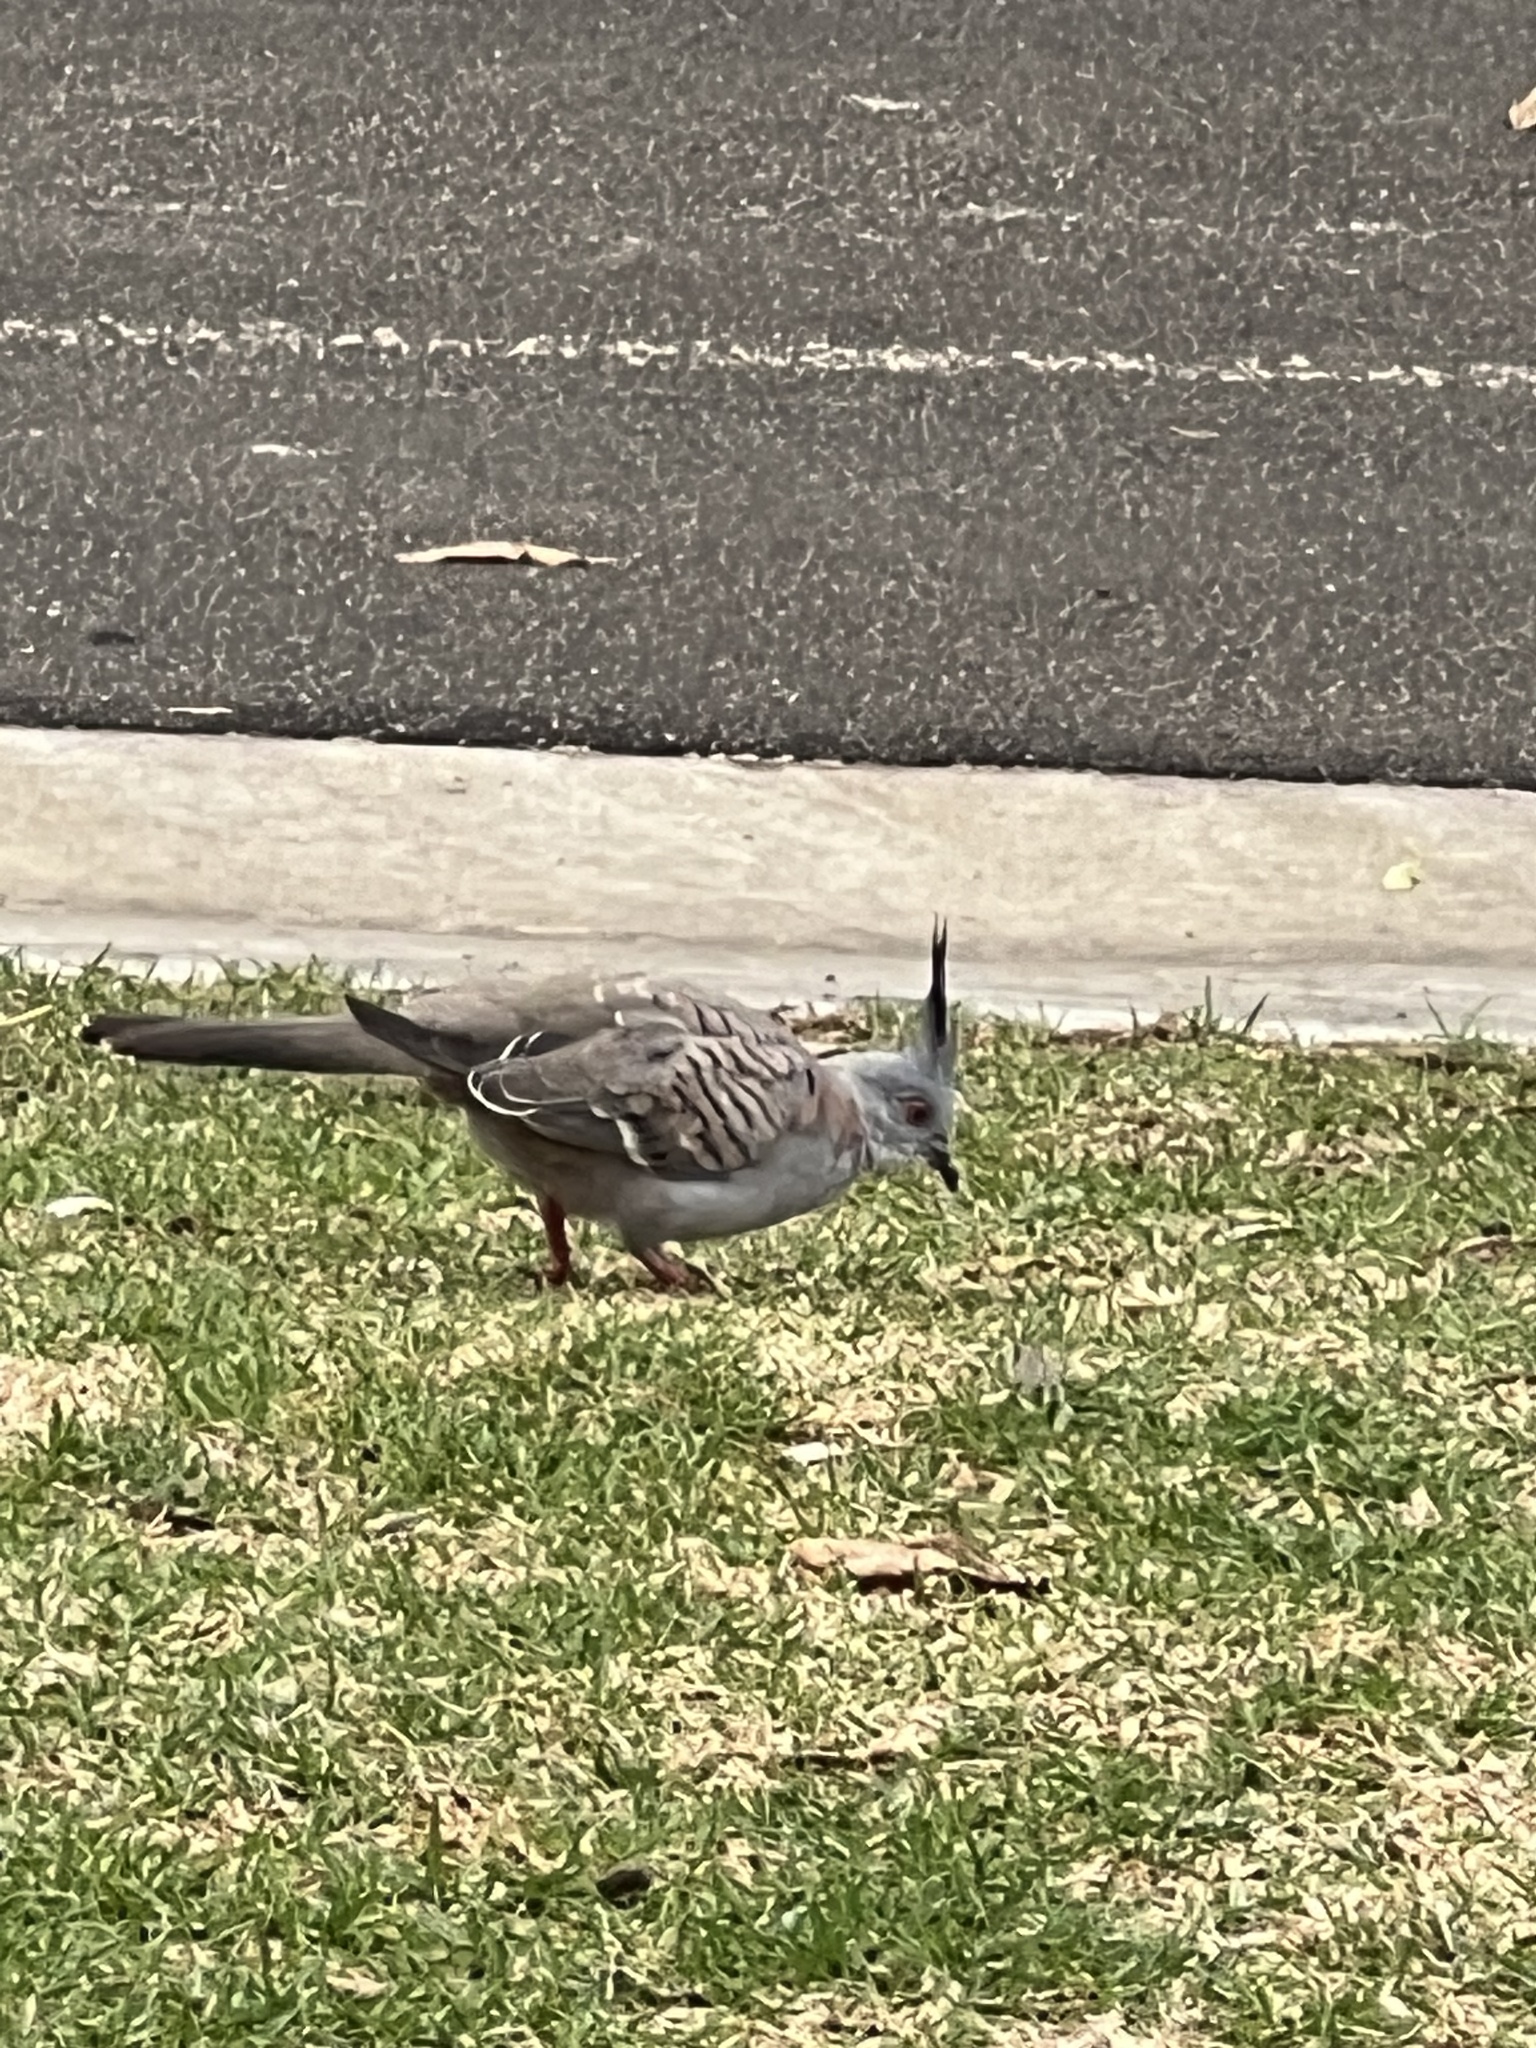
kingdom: Animalia
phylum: Chordata
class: Aves
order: Columbiformes
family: Columbidae
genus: Ocyphaps
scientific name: Ocyphaps lophotes
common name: Crested pigeon
